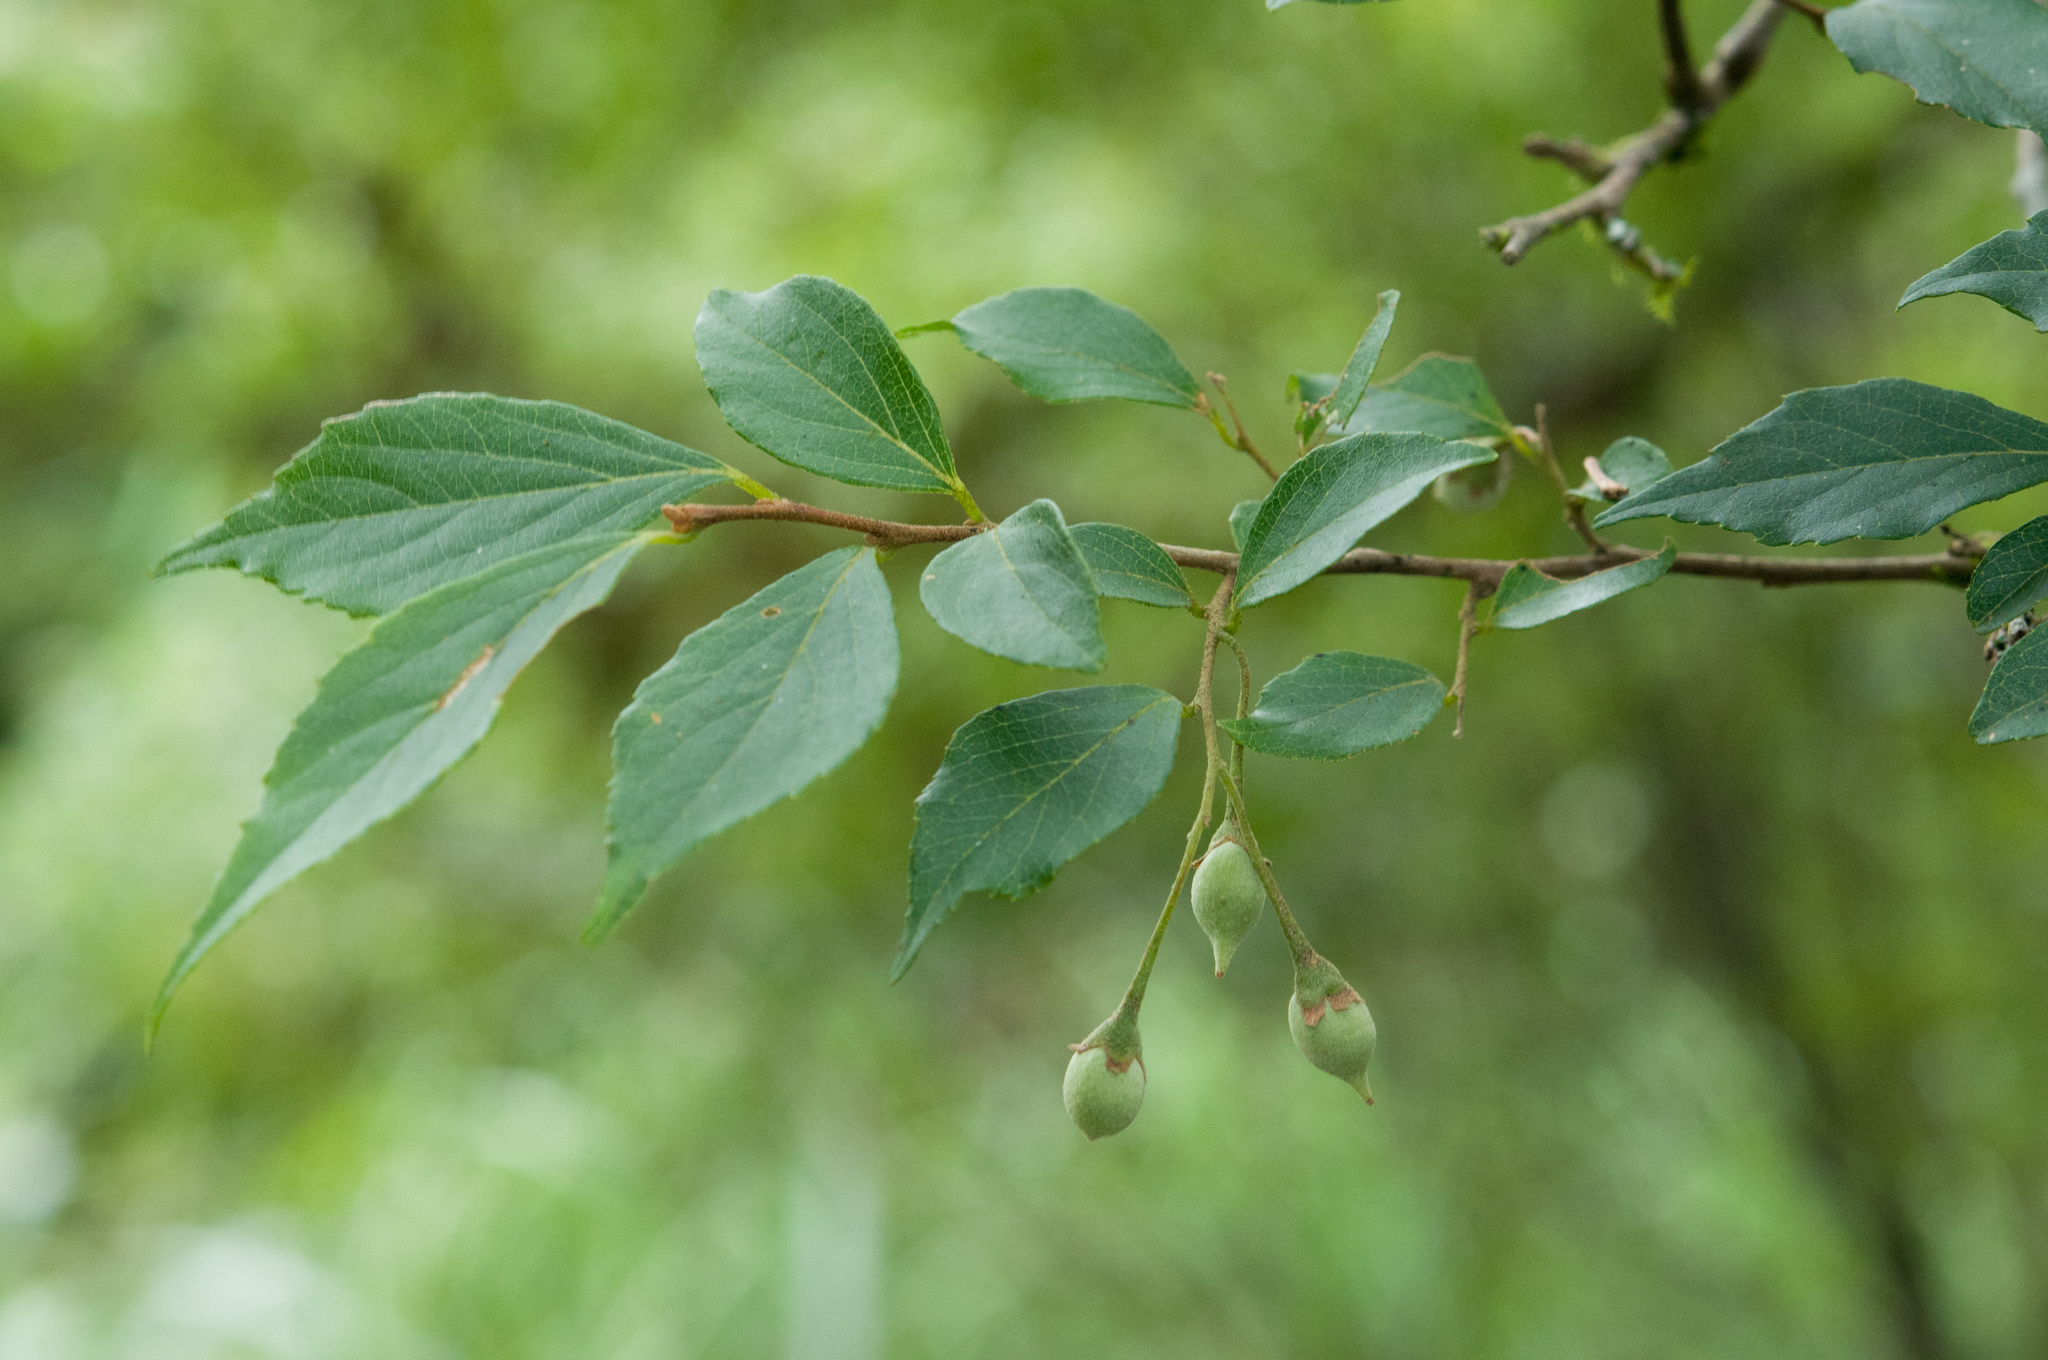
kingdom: Plantae
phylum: Tracheophyta
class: Magnoliopsida
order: Ericales
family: Styracaceae
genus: Styrax
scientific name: Styrax formosanus
